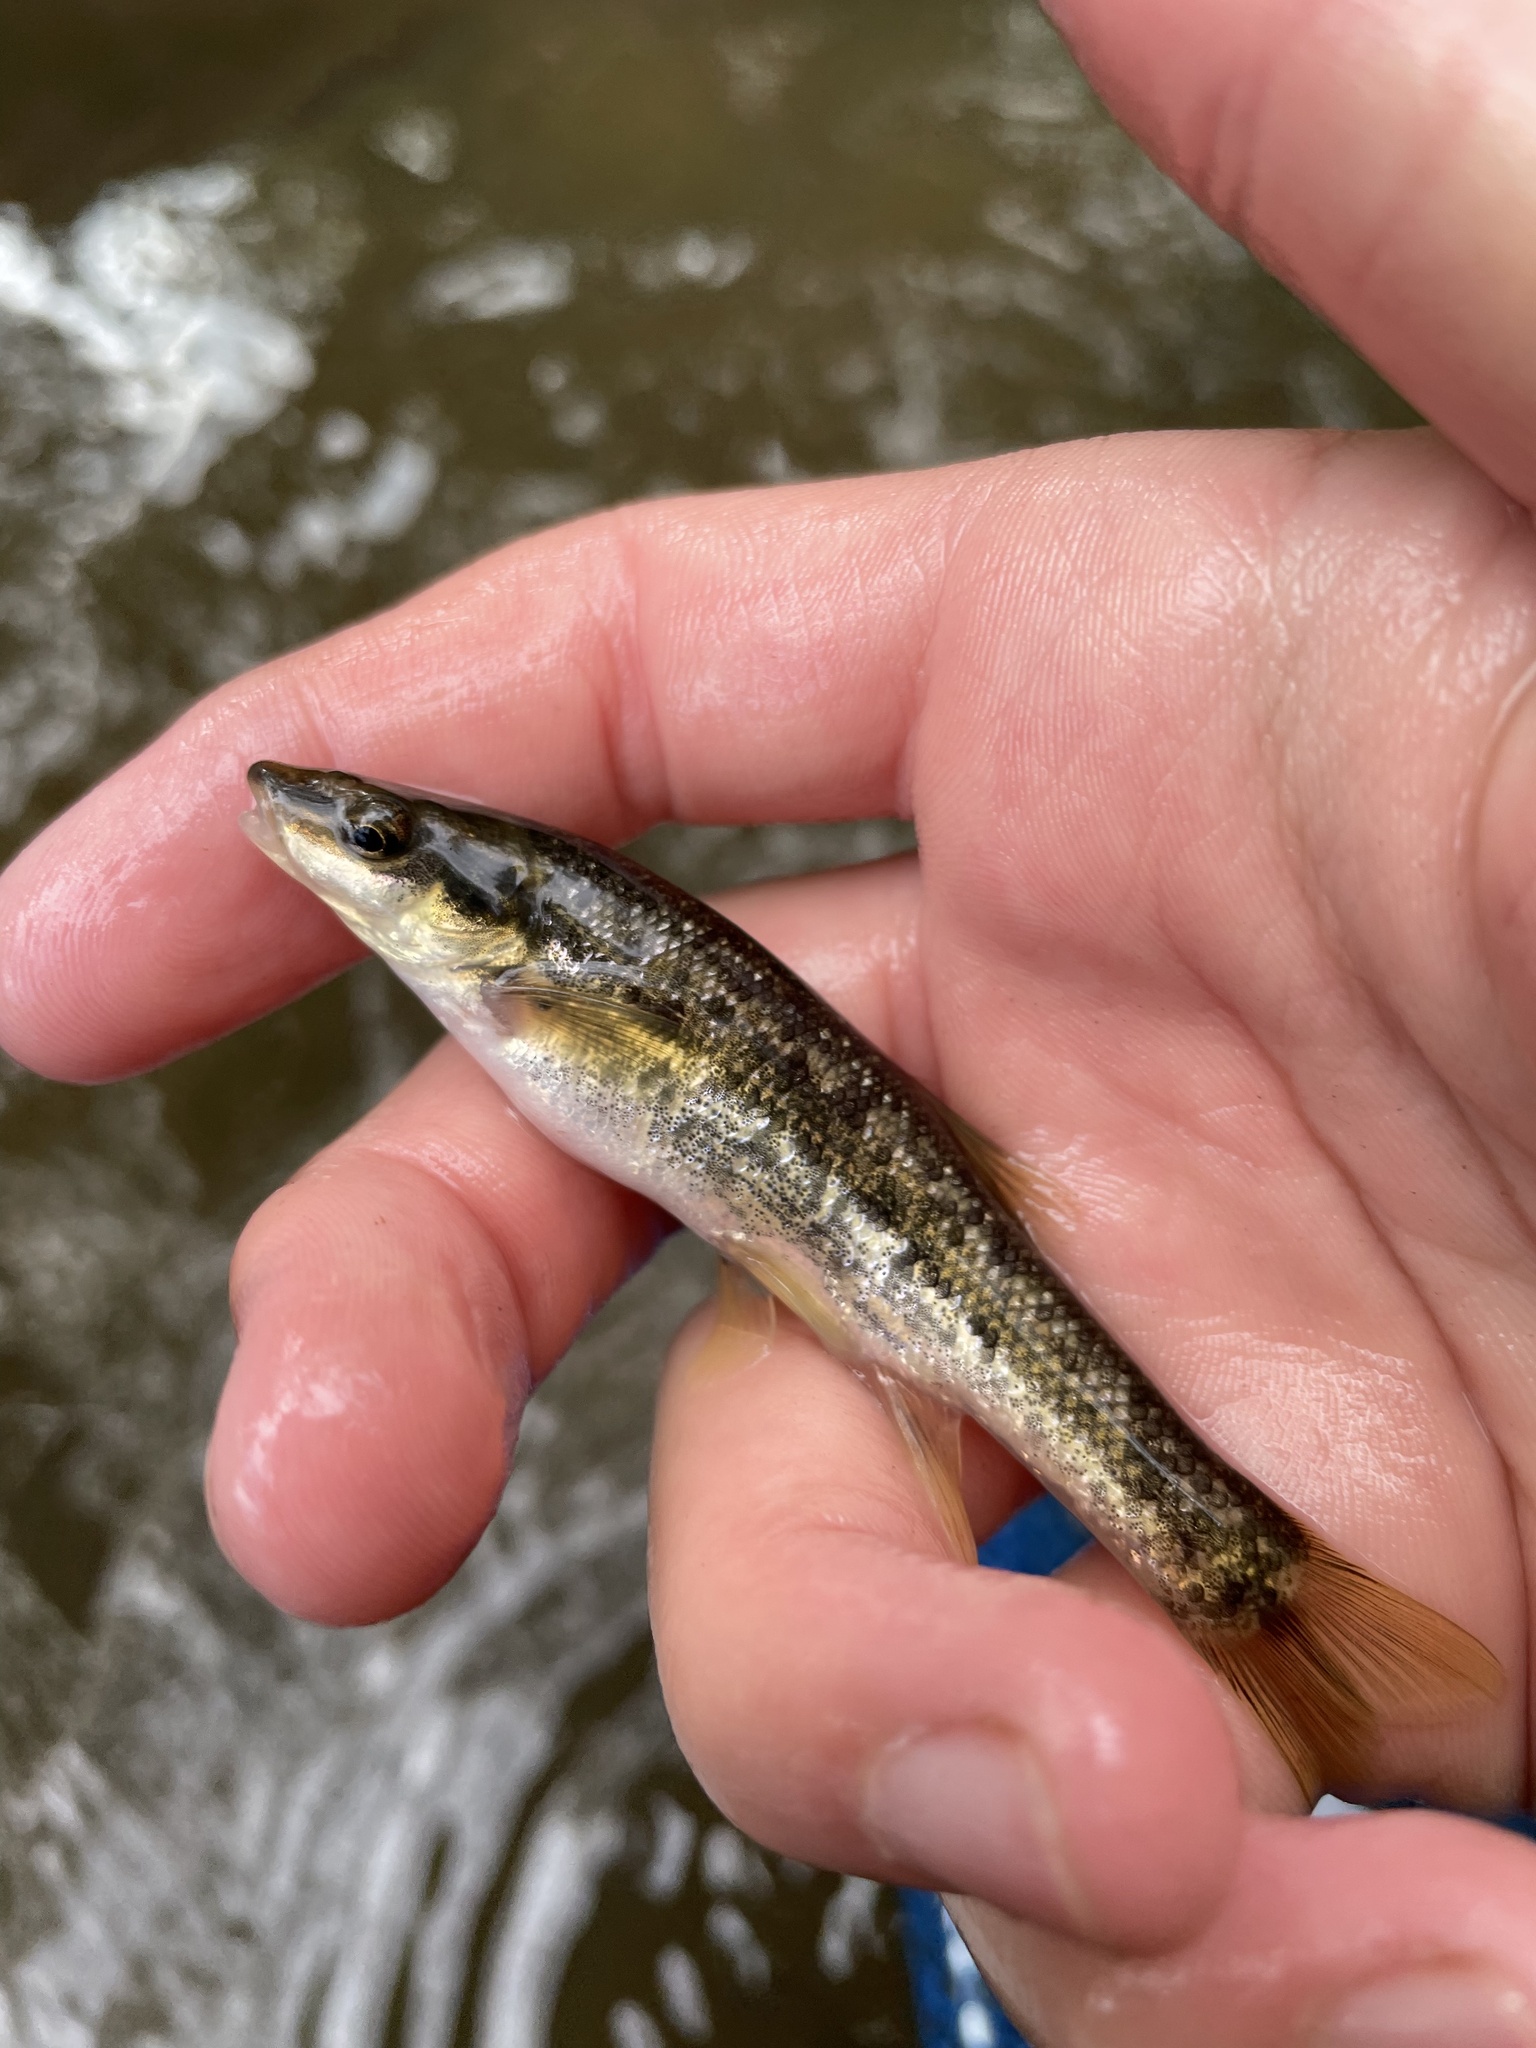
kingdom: Animalia
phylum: Chordata
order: Cypriniformes
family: Cyprinidae
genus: Rhinichthys
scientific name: Rhinichthys obtusus
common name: Western blacknose dace
